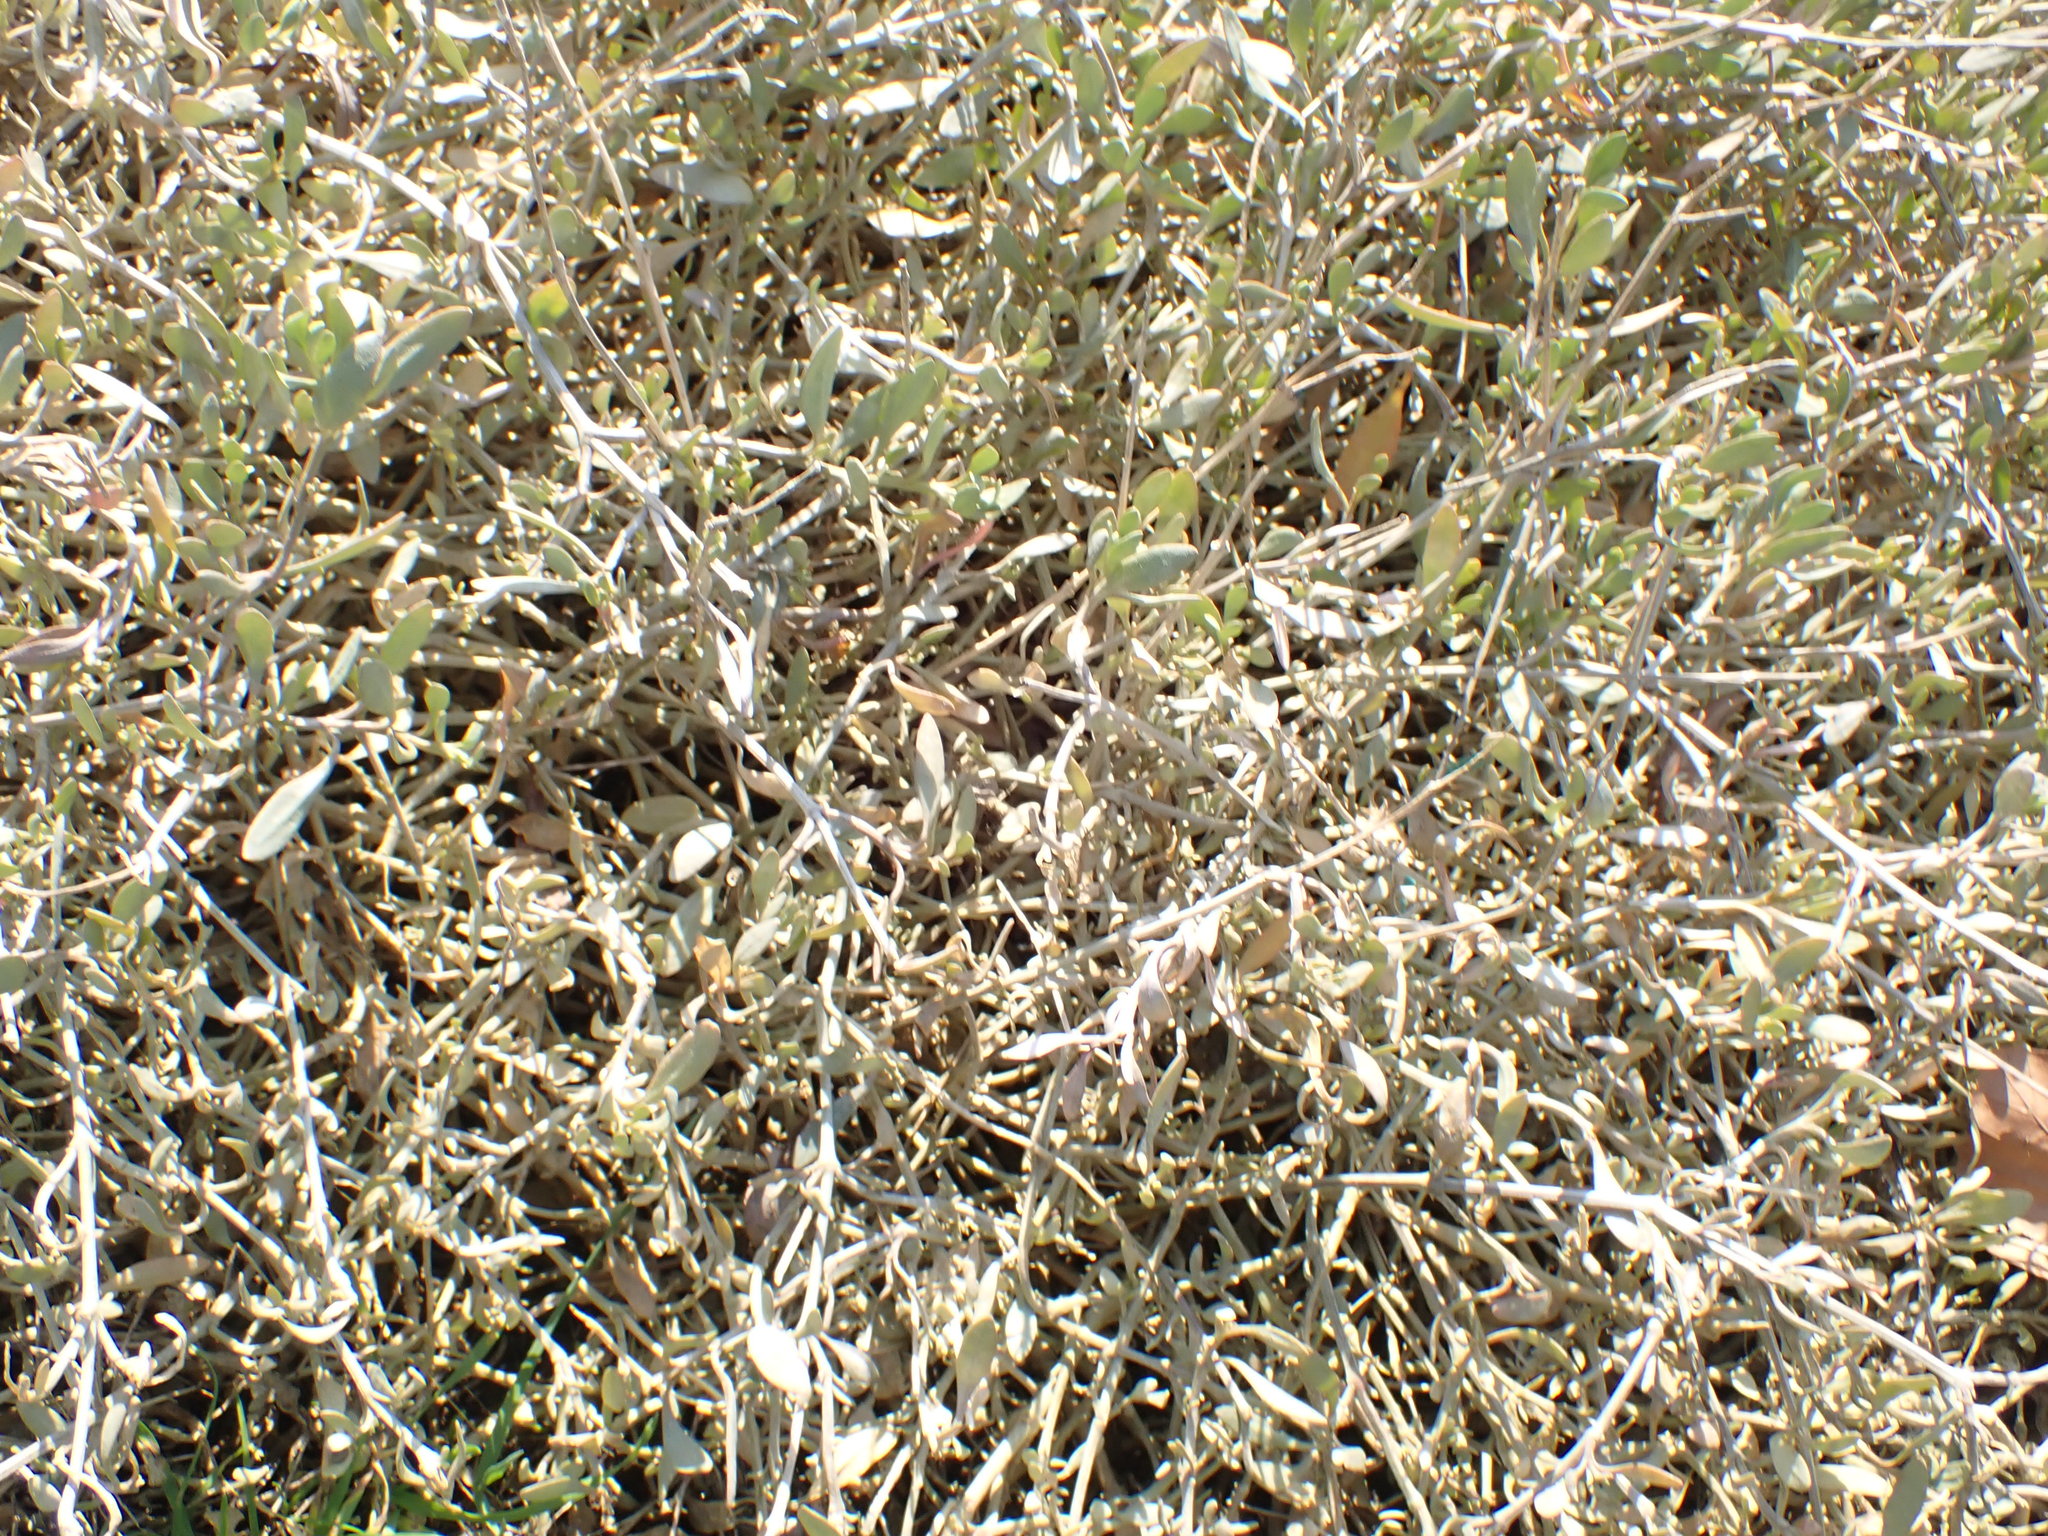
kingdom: Plantae
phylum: Tracheophyta
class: Magnoliopsida
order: Caryophyllales
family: Amaranthaceae
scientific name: Amaranthaceae
